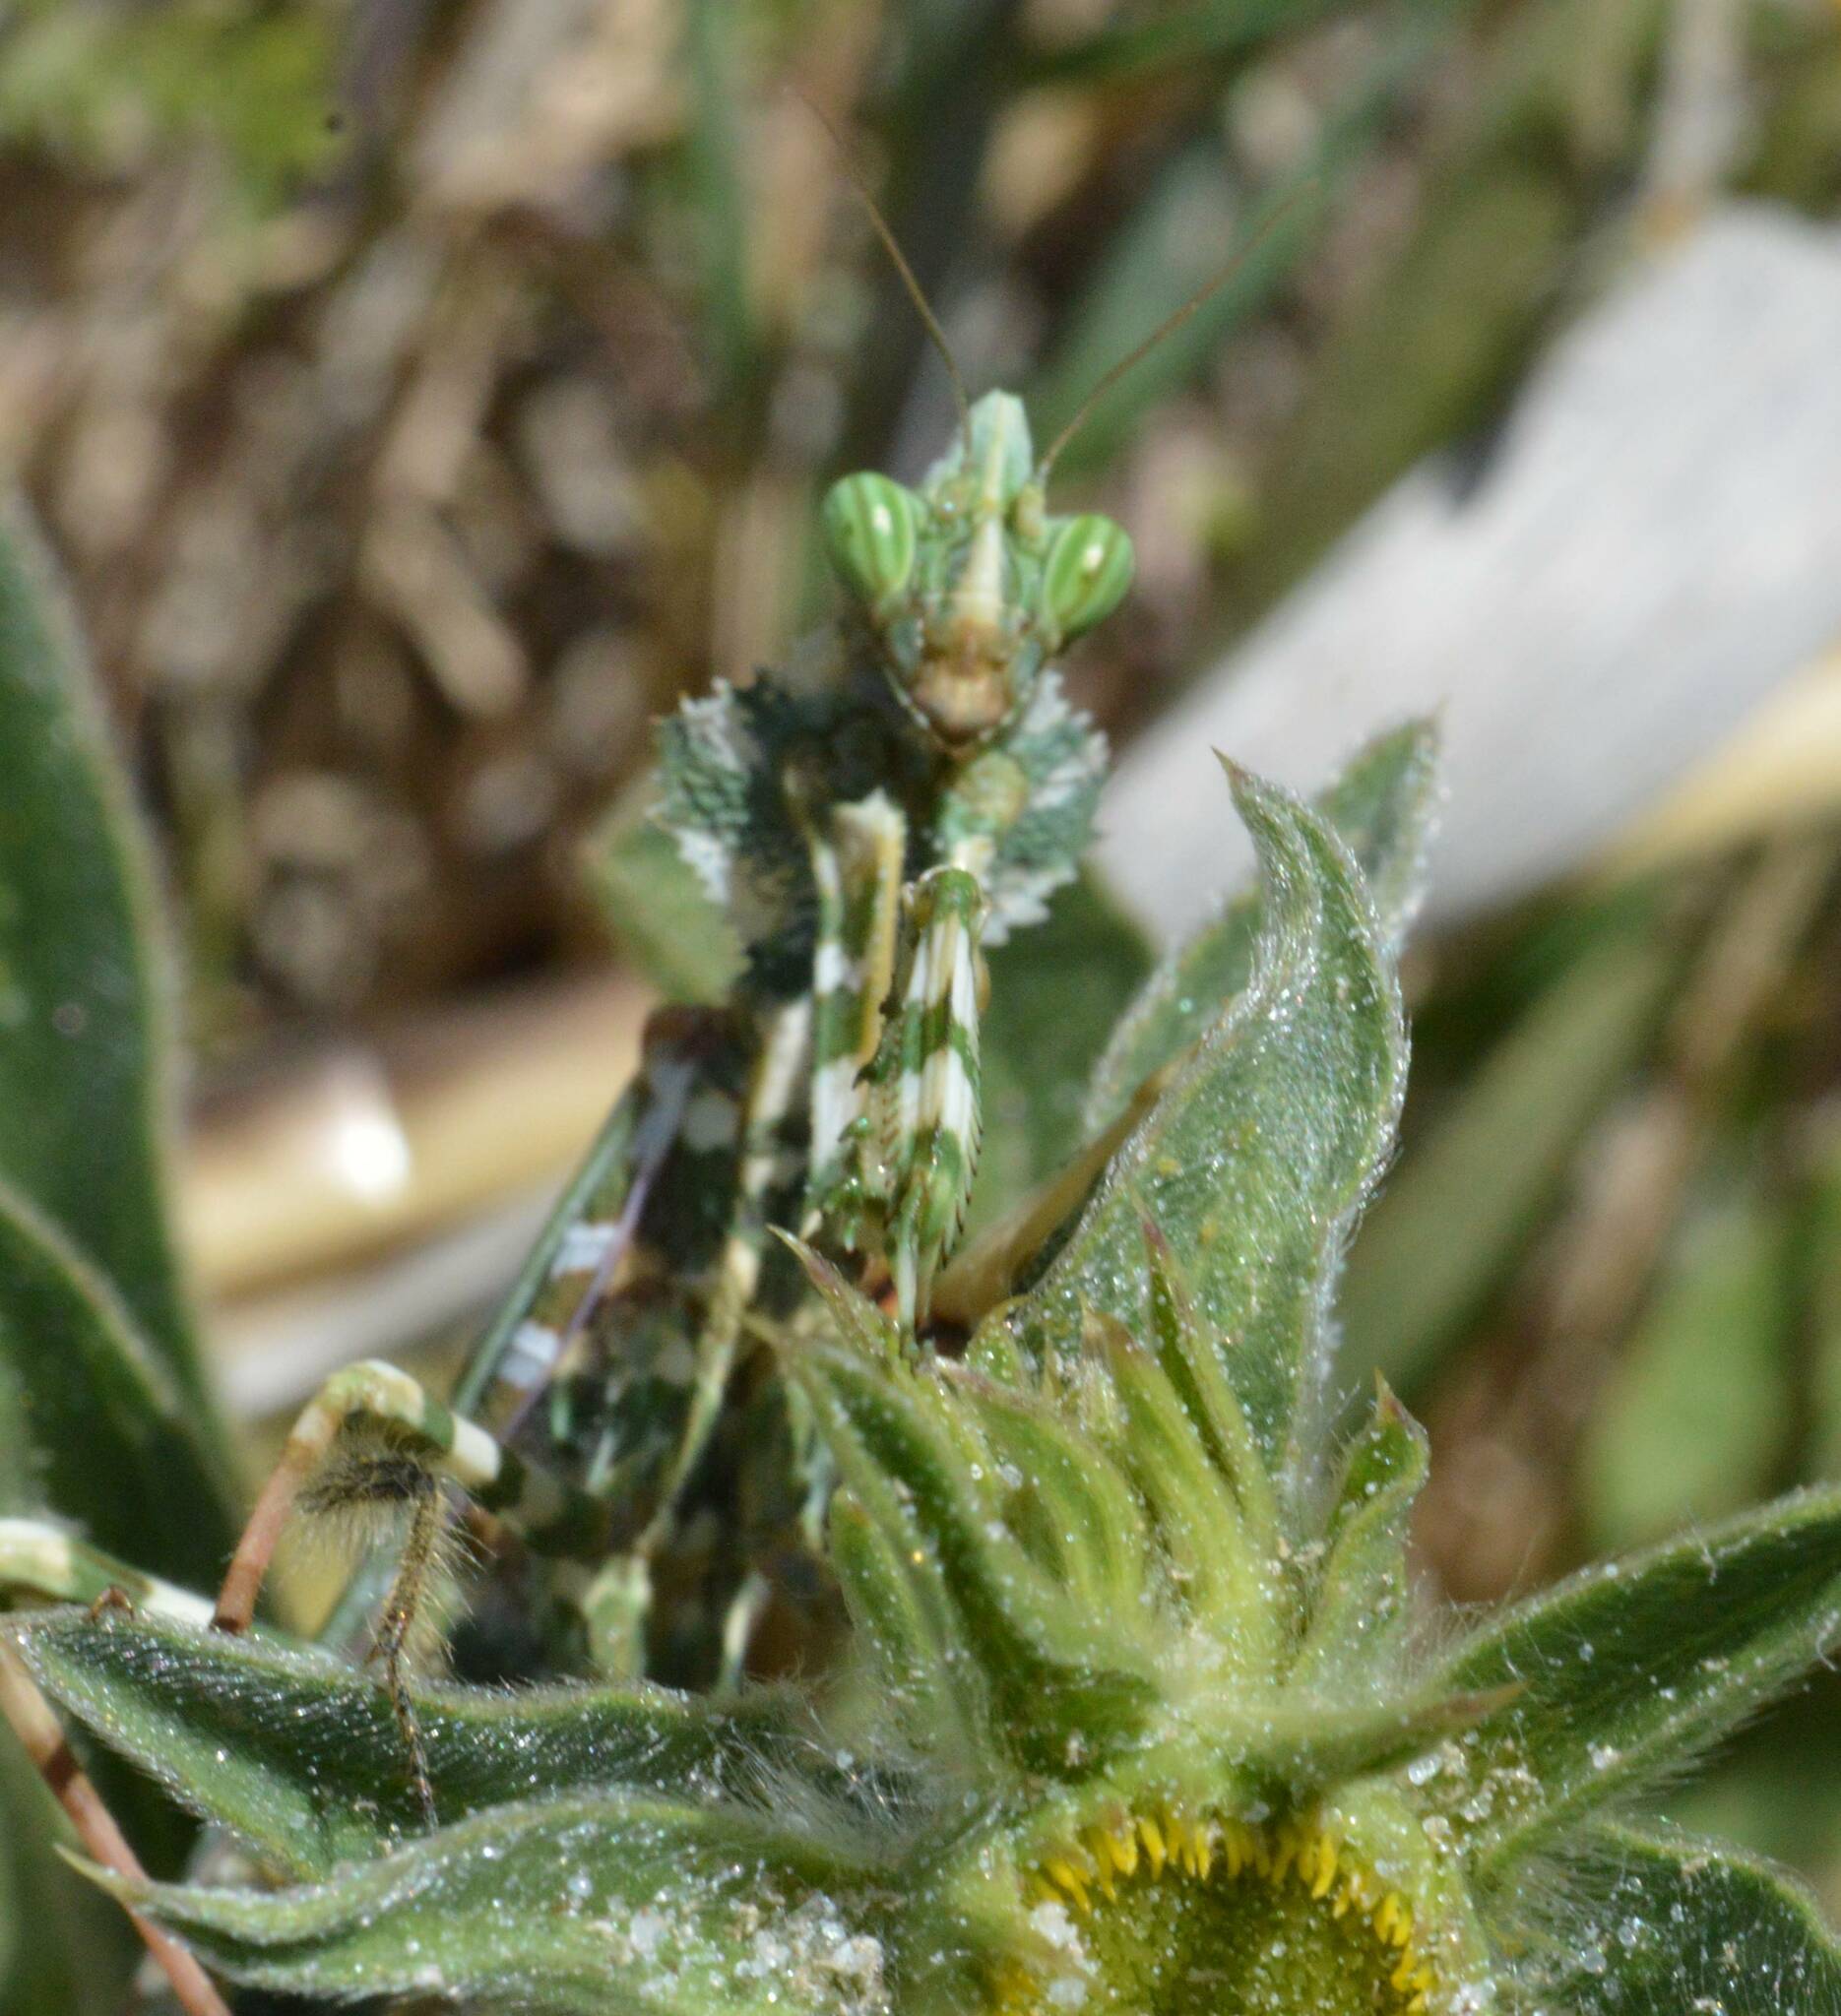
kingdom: Animalia
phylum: Arthropoda
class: Insecta
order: Mantodea
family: Empusidae
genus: Blepharopsis
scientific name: Blepharopsis mendica
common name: Devil's flower mantis
